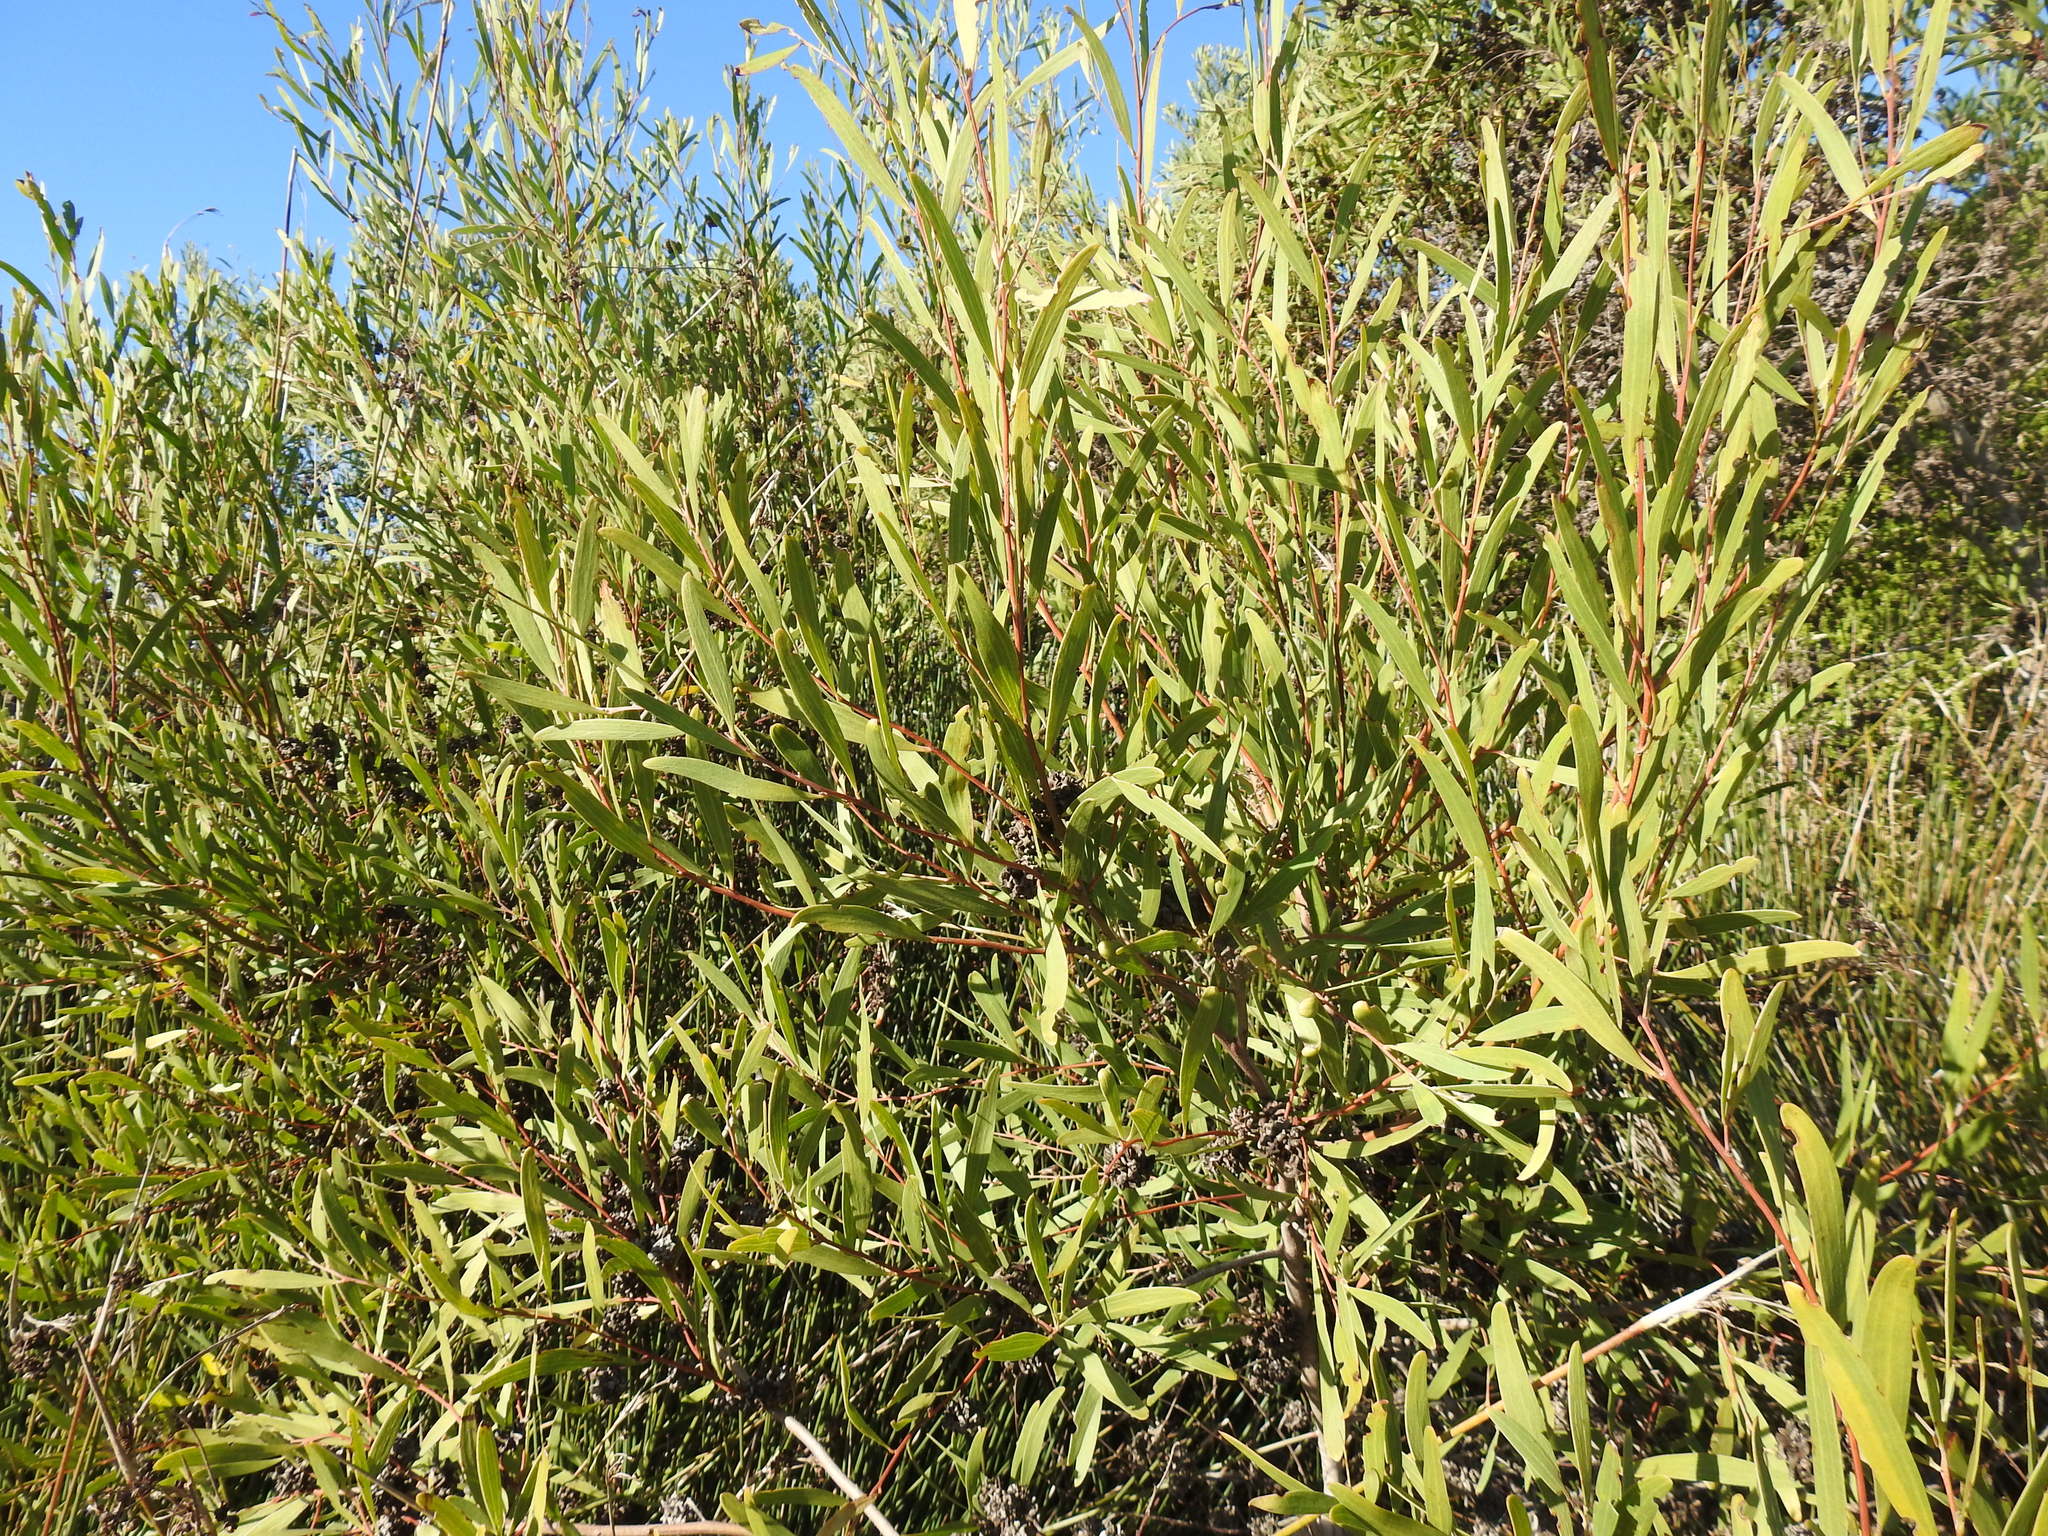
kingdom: Plantae
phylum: Tracheophyta
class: Magnoliopsida
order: Fabales
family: Fabaceae
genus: Acacia
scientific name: Acacia cyclops
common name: Coastal wattle
